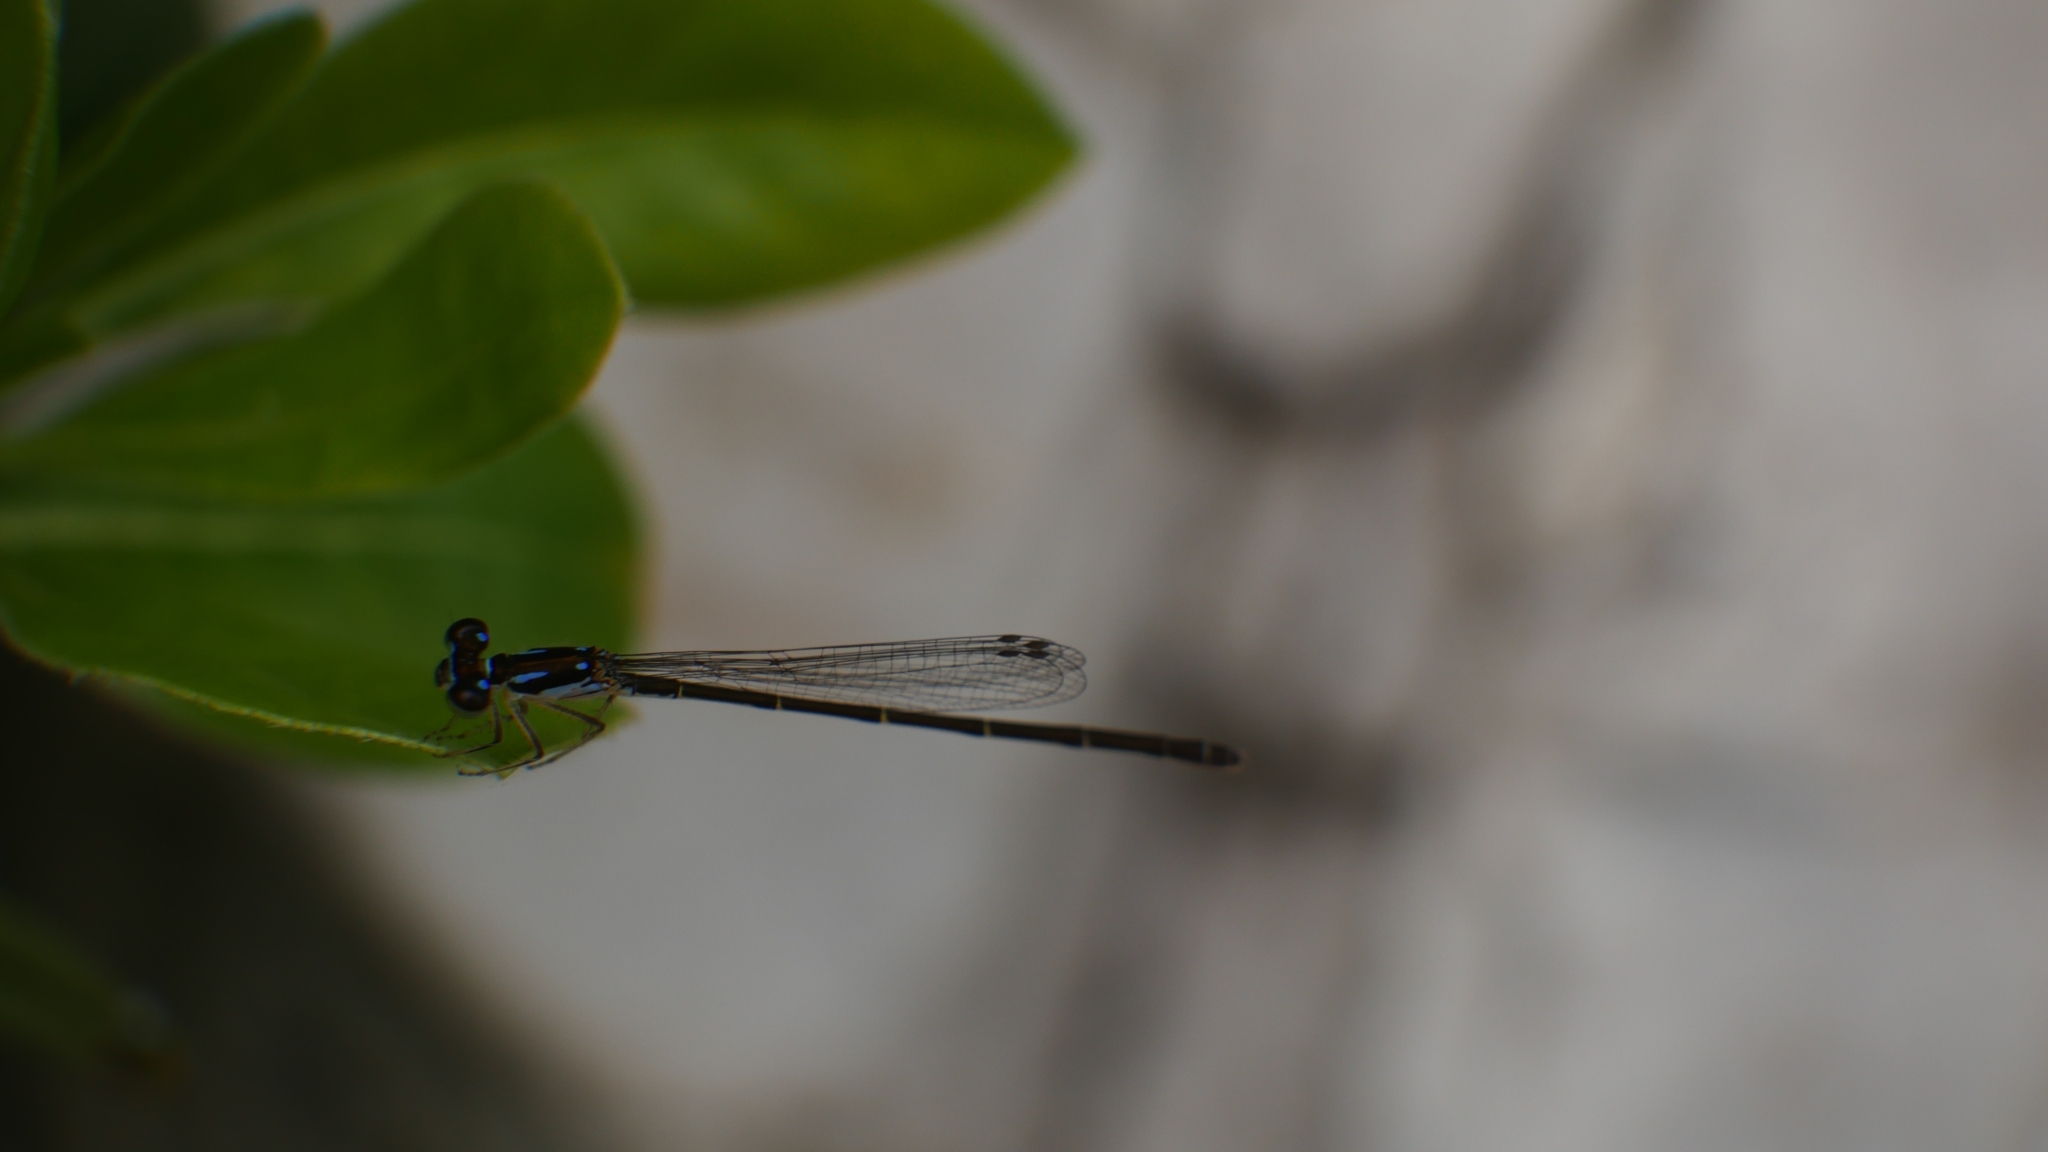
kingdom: Animalia
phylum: Arthropoda
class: Insecta
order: Odonata
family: Coenagrionidae
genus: Ischnura
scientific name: Ischnura posita
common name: Fragile forktail
